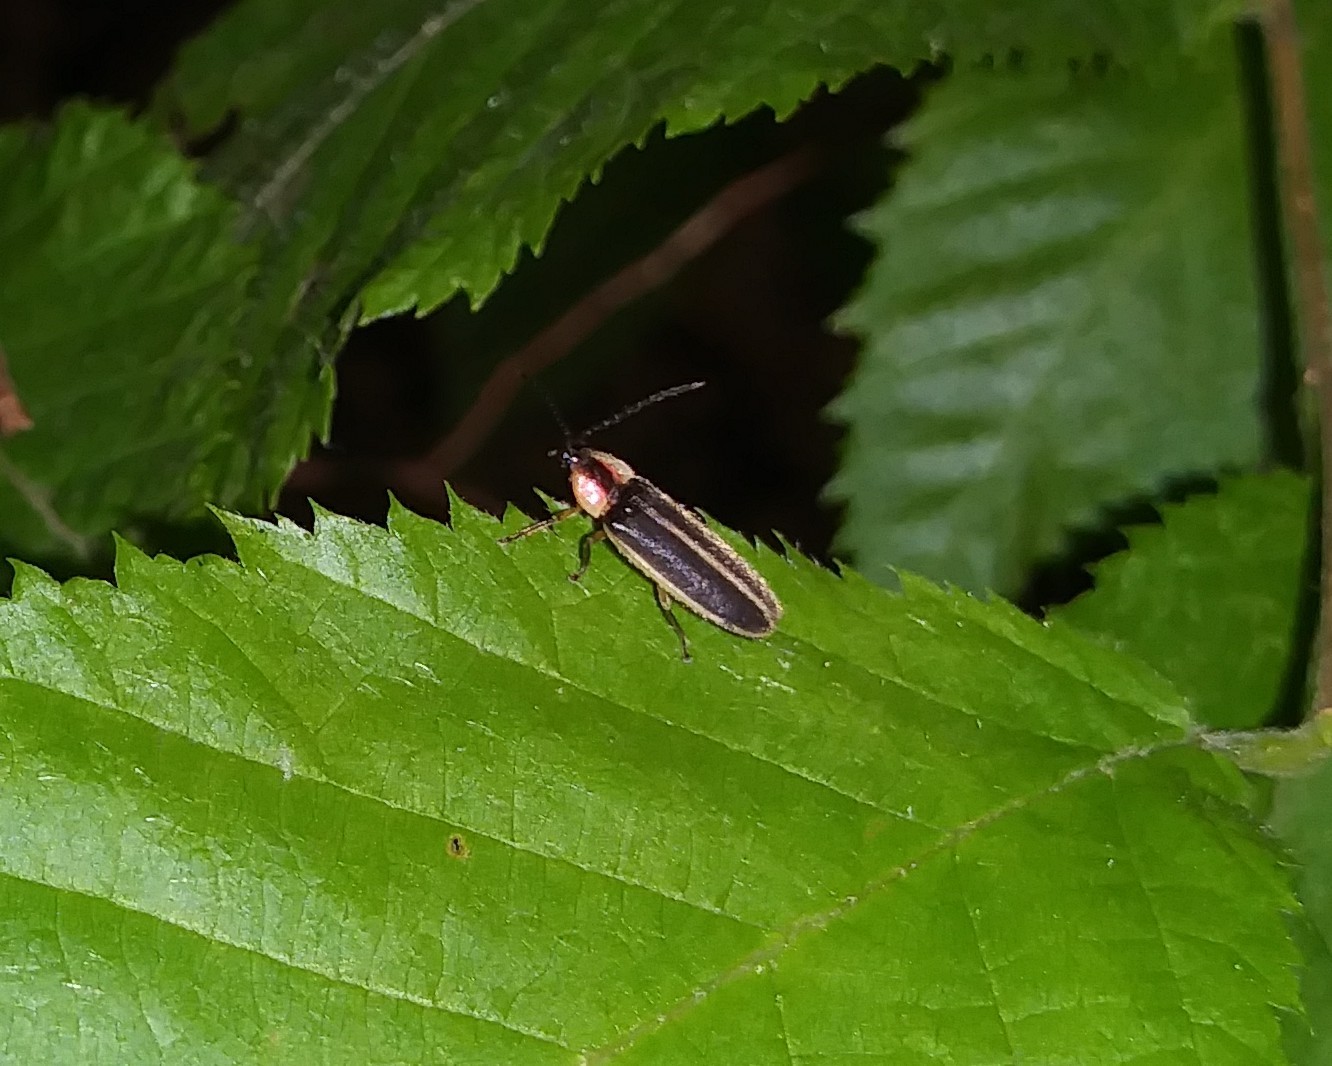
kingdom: Animalia
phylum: Arthropoda
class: Insecta
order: Coleoptera
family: Lampyridae
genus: Photinus
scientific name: Photinus pyralis
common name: Big dipper firefly
